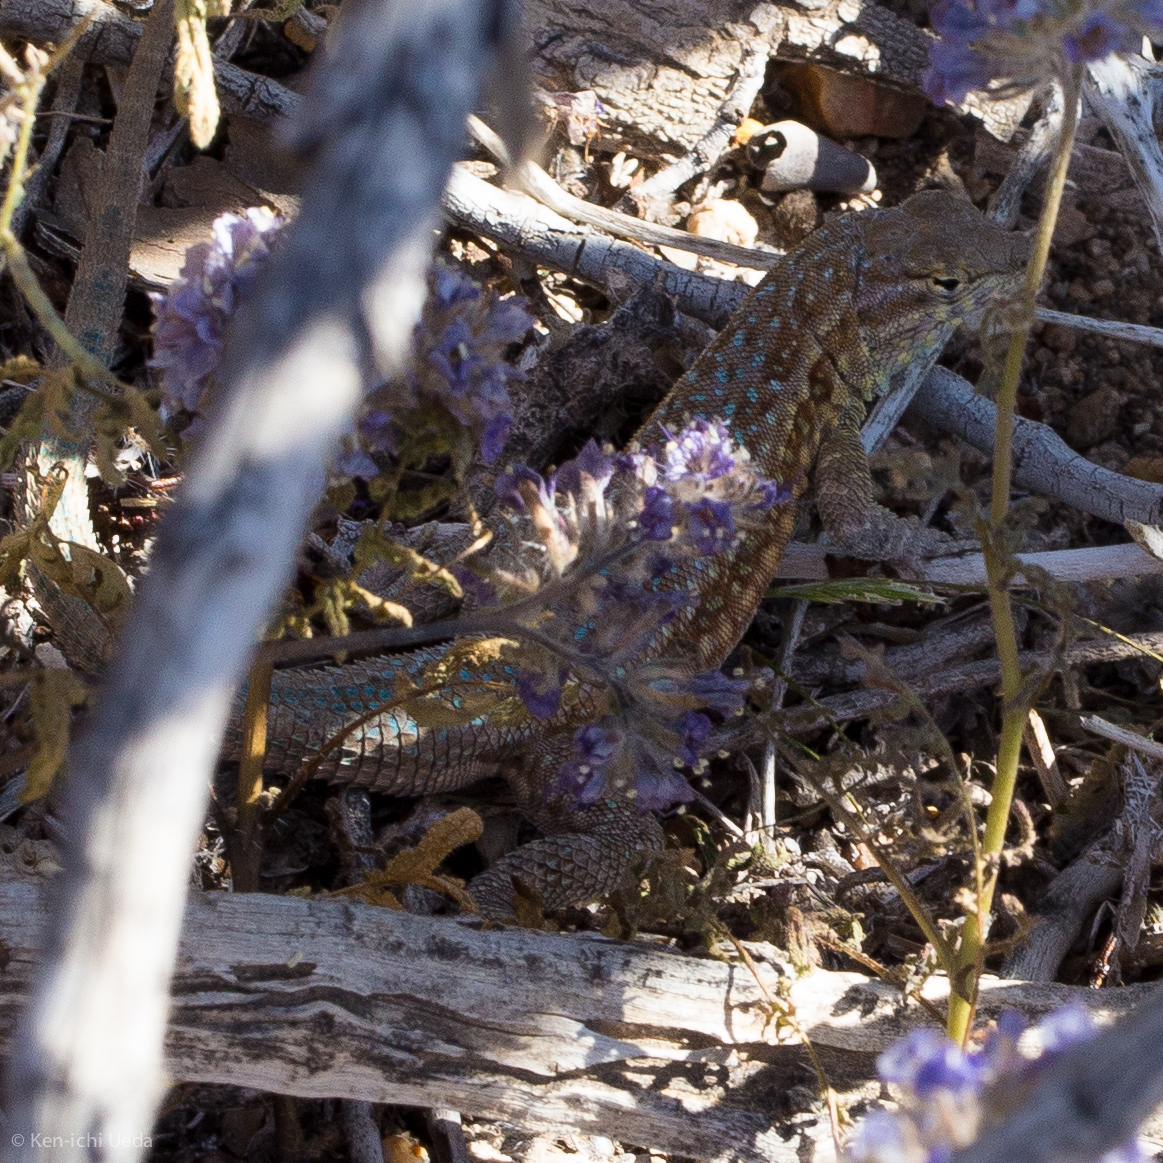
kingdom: Animalia
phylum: Chordata
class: Squamata
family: Phrynosomatidae
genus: Uta
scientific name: Uta stansburiana
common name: Side-blotched lizard
